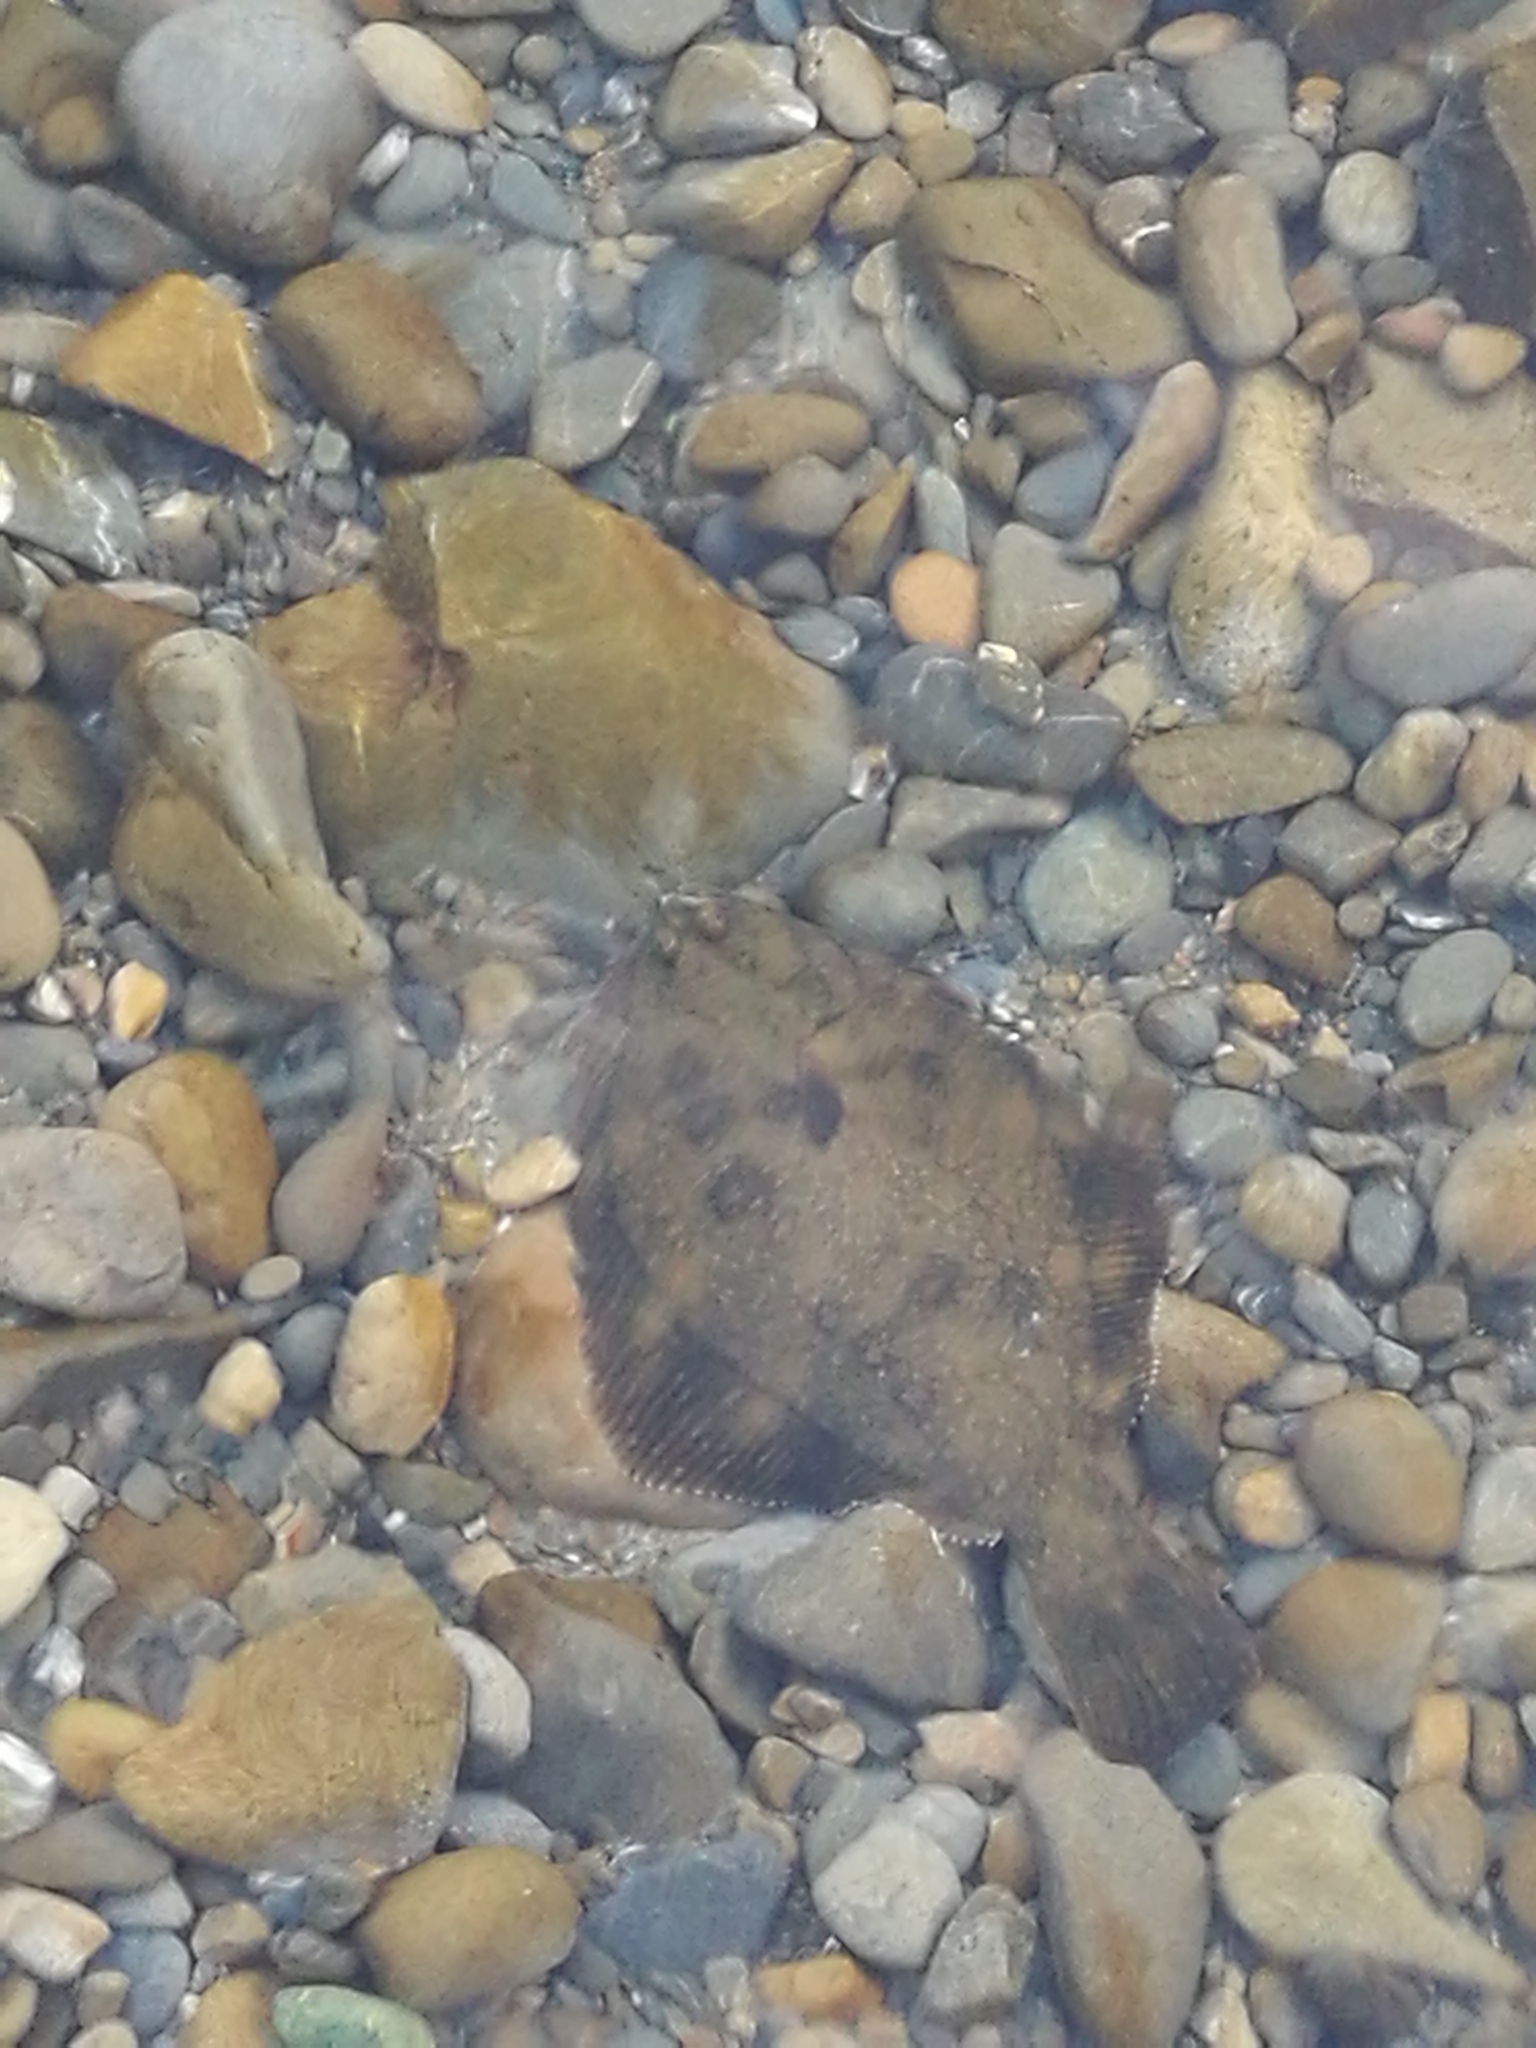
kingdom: Animalia
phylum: Chordata
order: Pleuronectiformes
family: Pleuronectidae
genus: Rhombosolea
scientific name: Rhombosolea retiaria
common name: Black flounder
